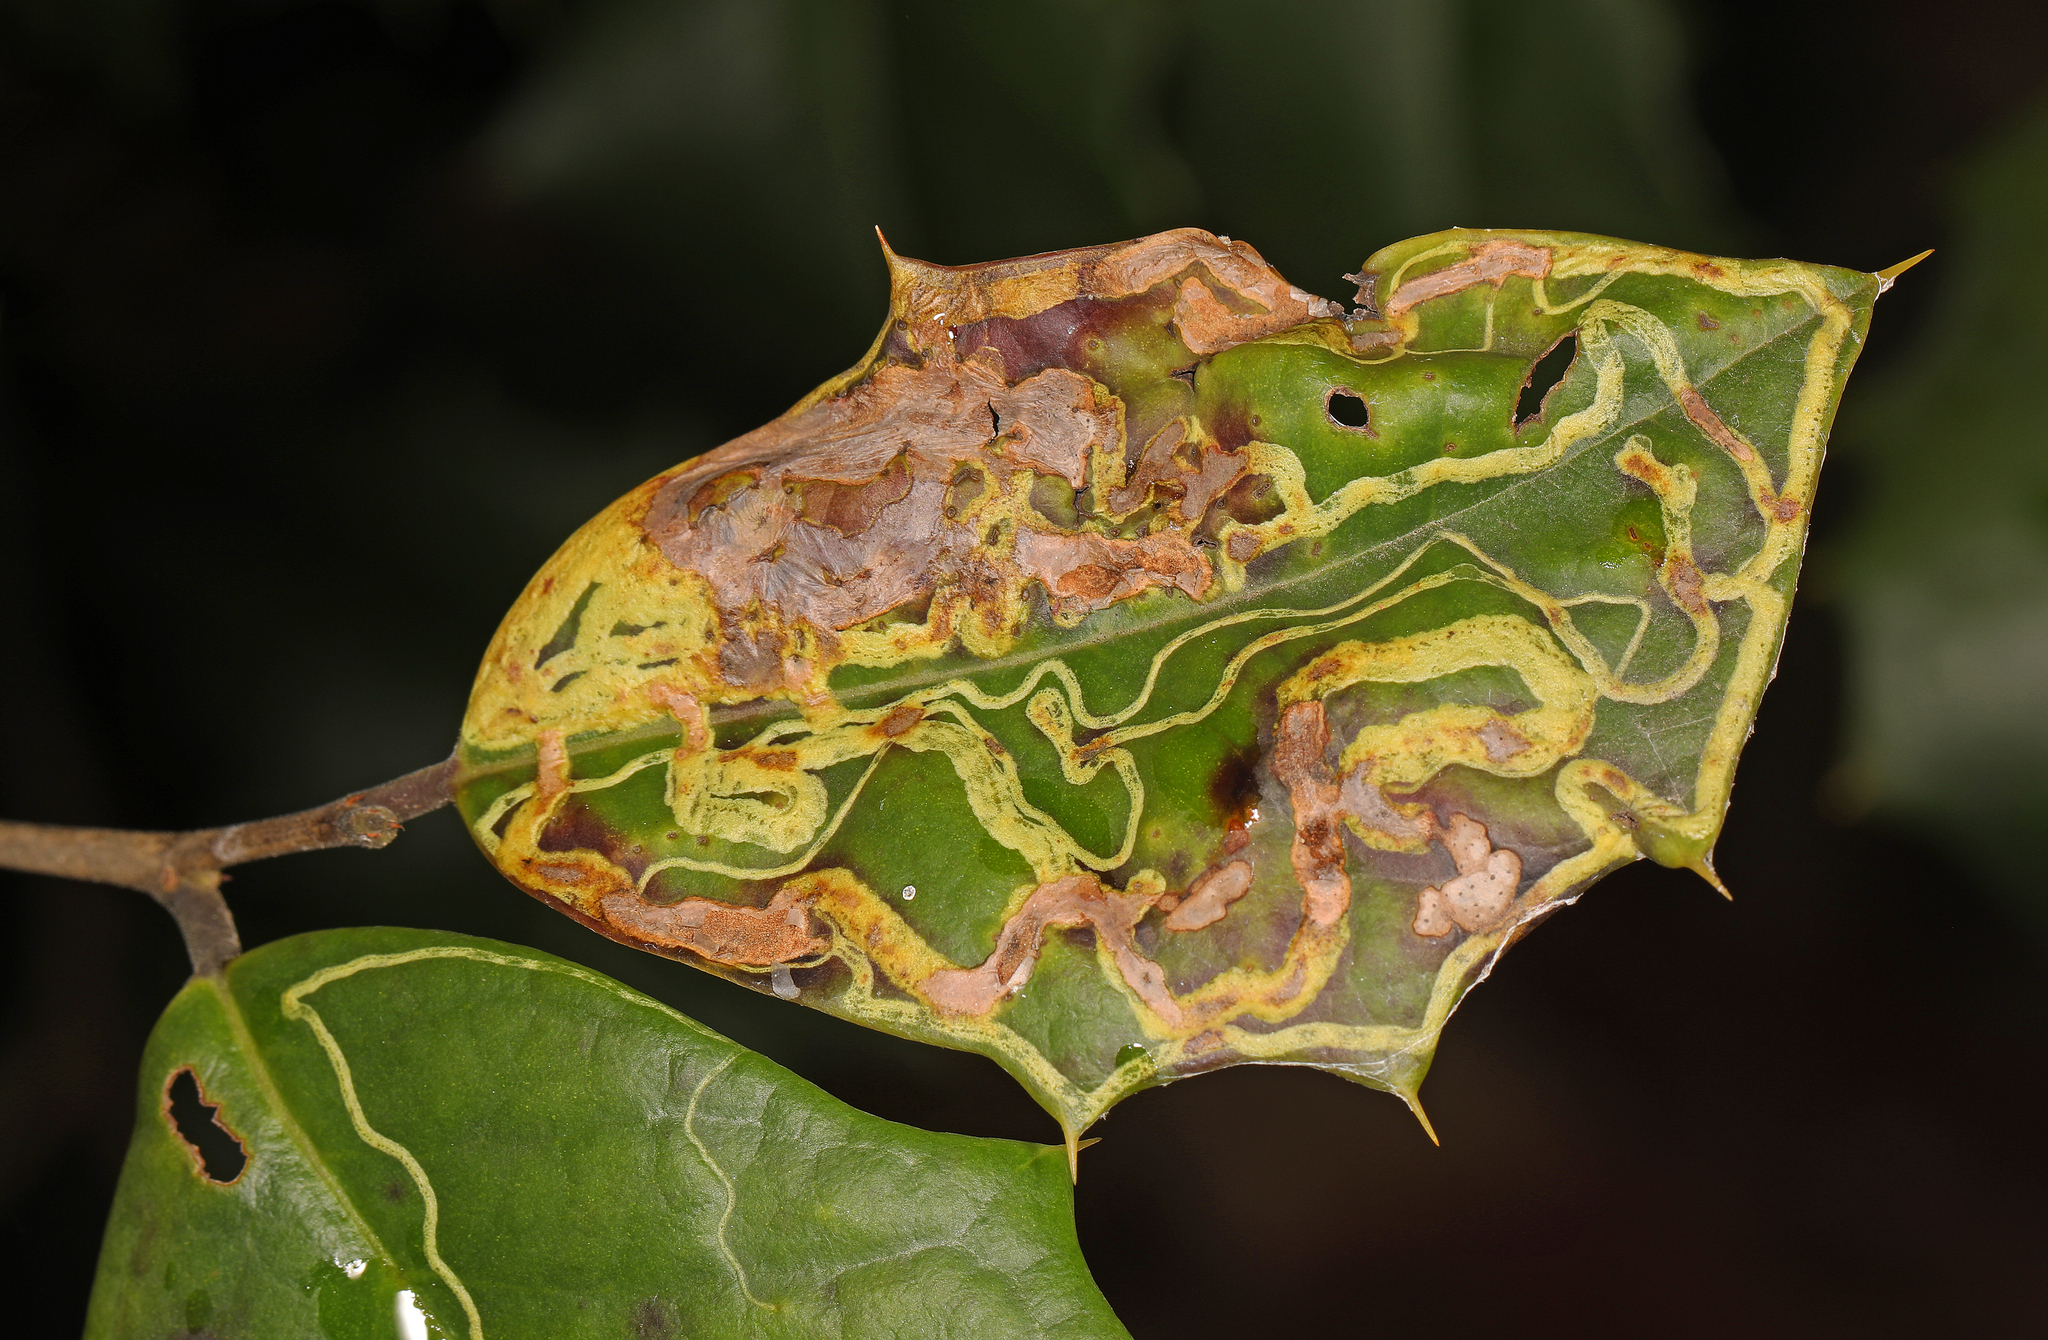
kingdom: Animalia
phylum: Arthropoda
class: Insecta
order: Diptera
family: Agromyzidae
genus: Phytomyza
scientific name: Phytomyza opacae
